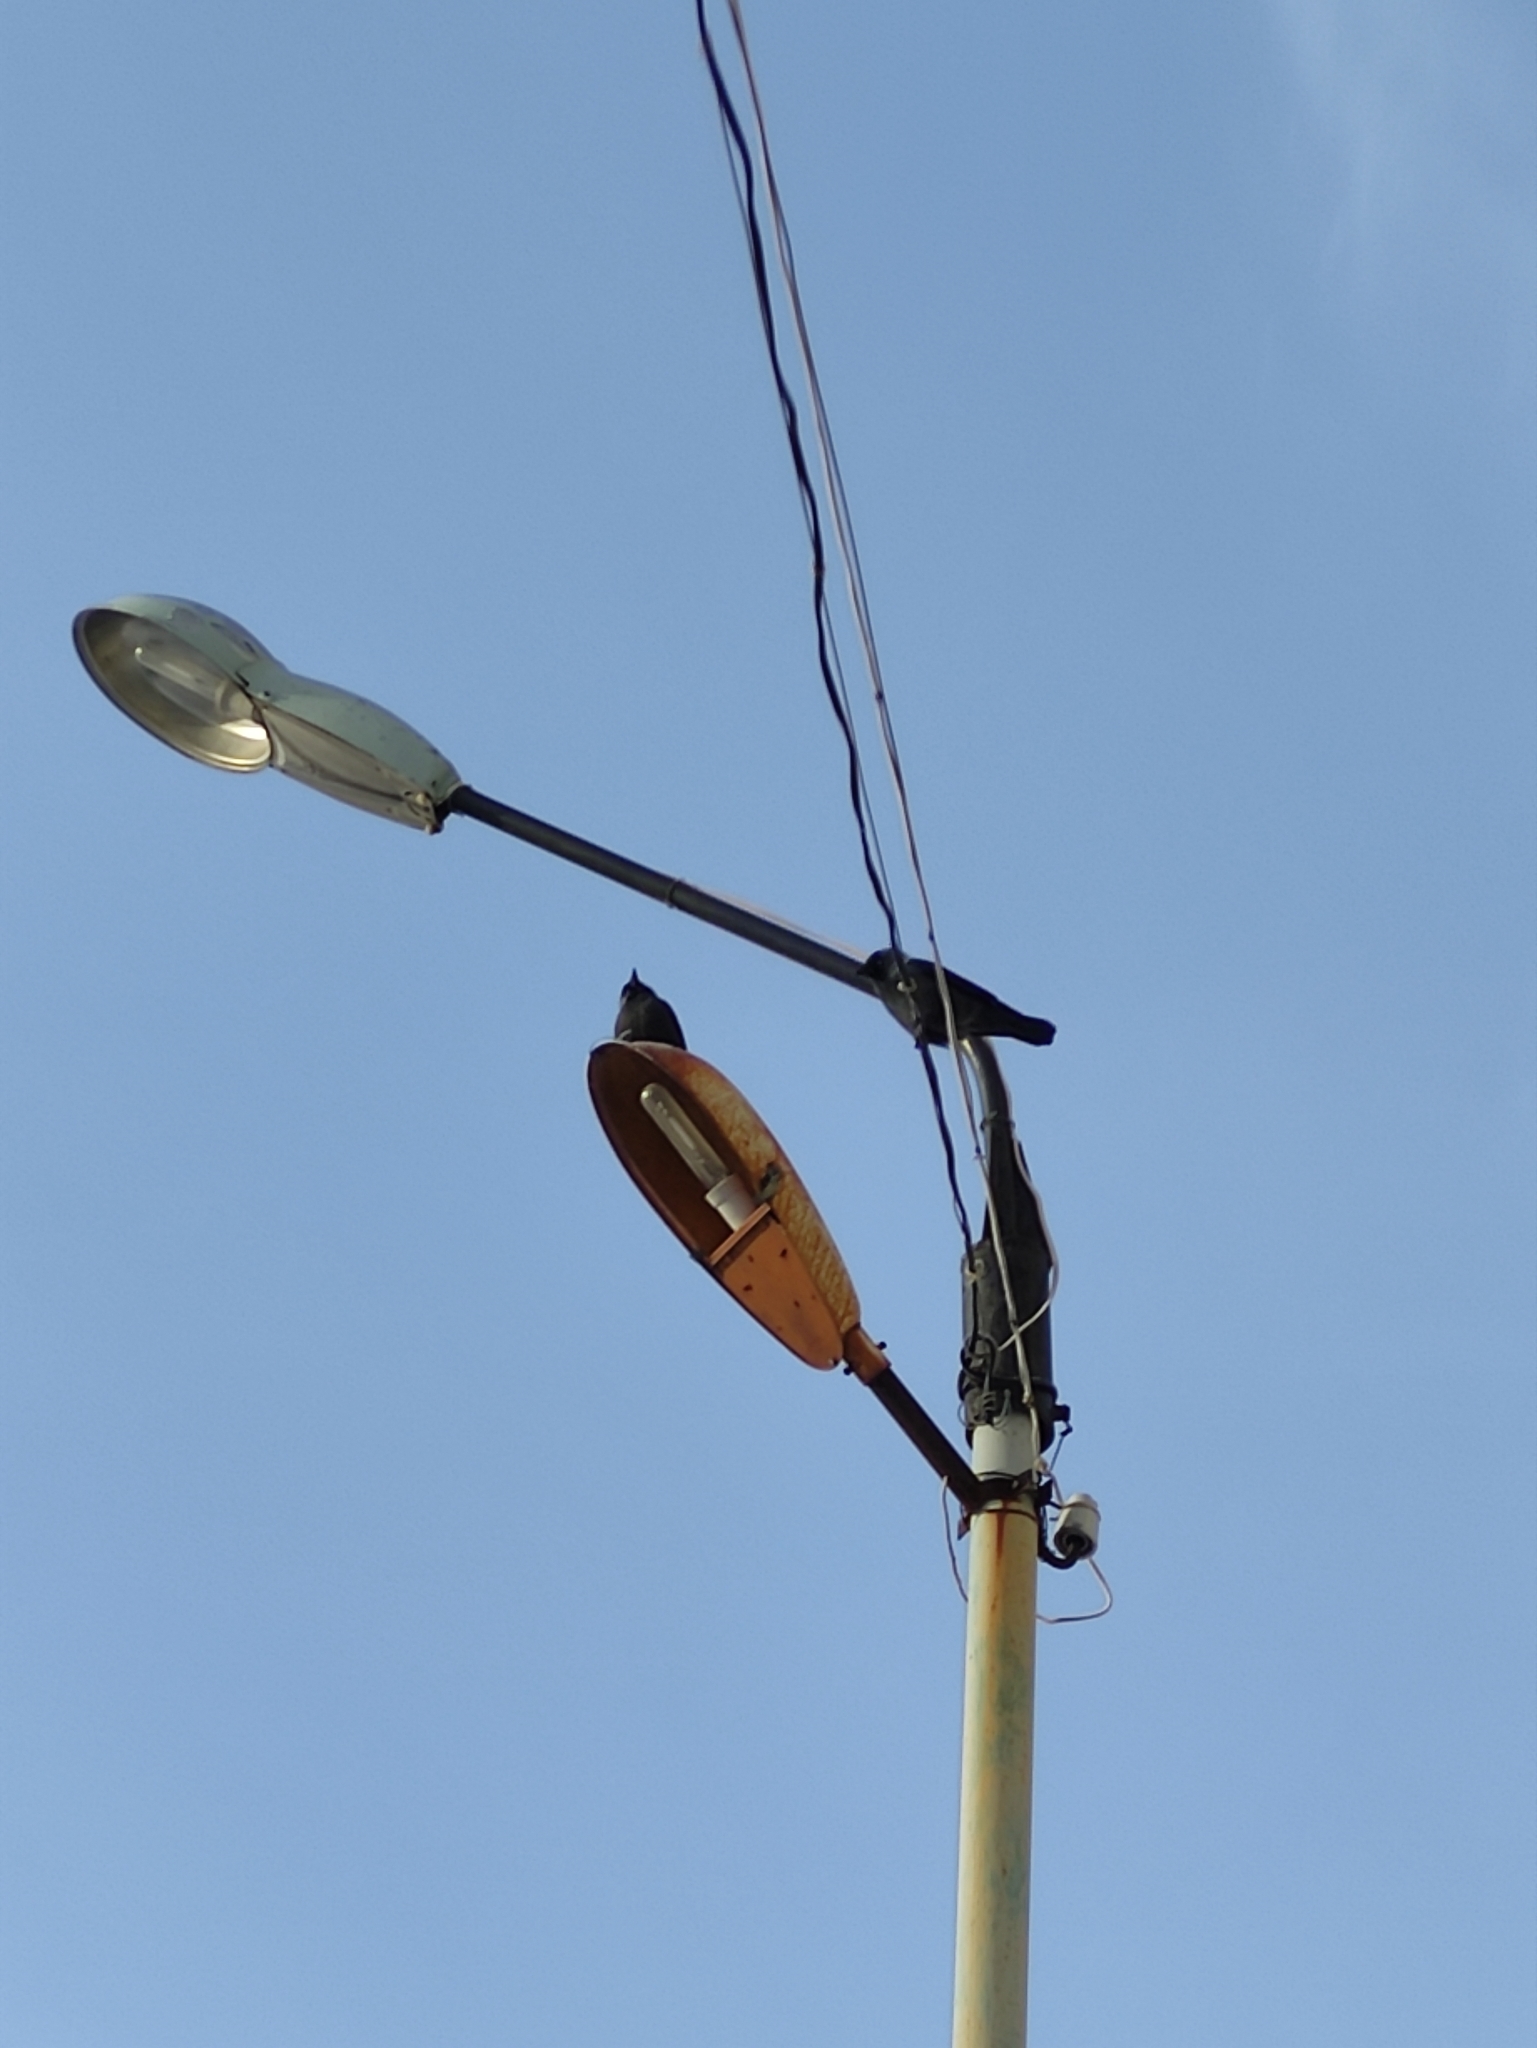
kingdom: Animalia
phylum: Chordata
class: Aves
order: Passeriformes
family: Corvidae
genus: Coloeus
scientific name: Coloeus monedula
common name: Western jackdaw
